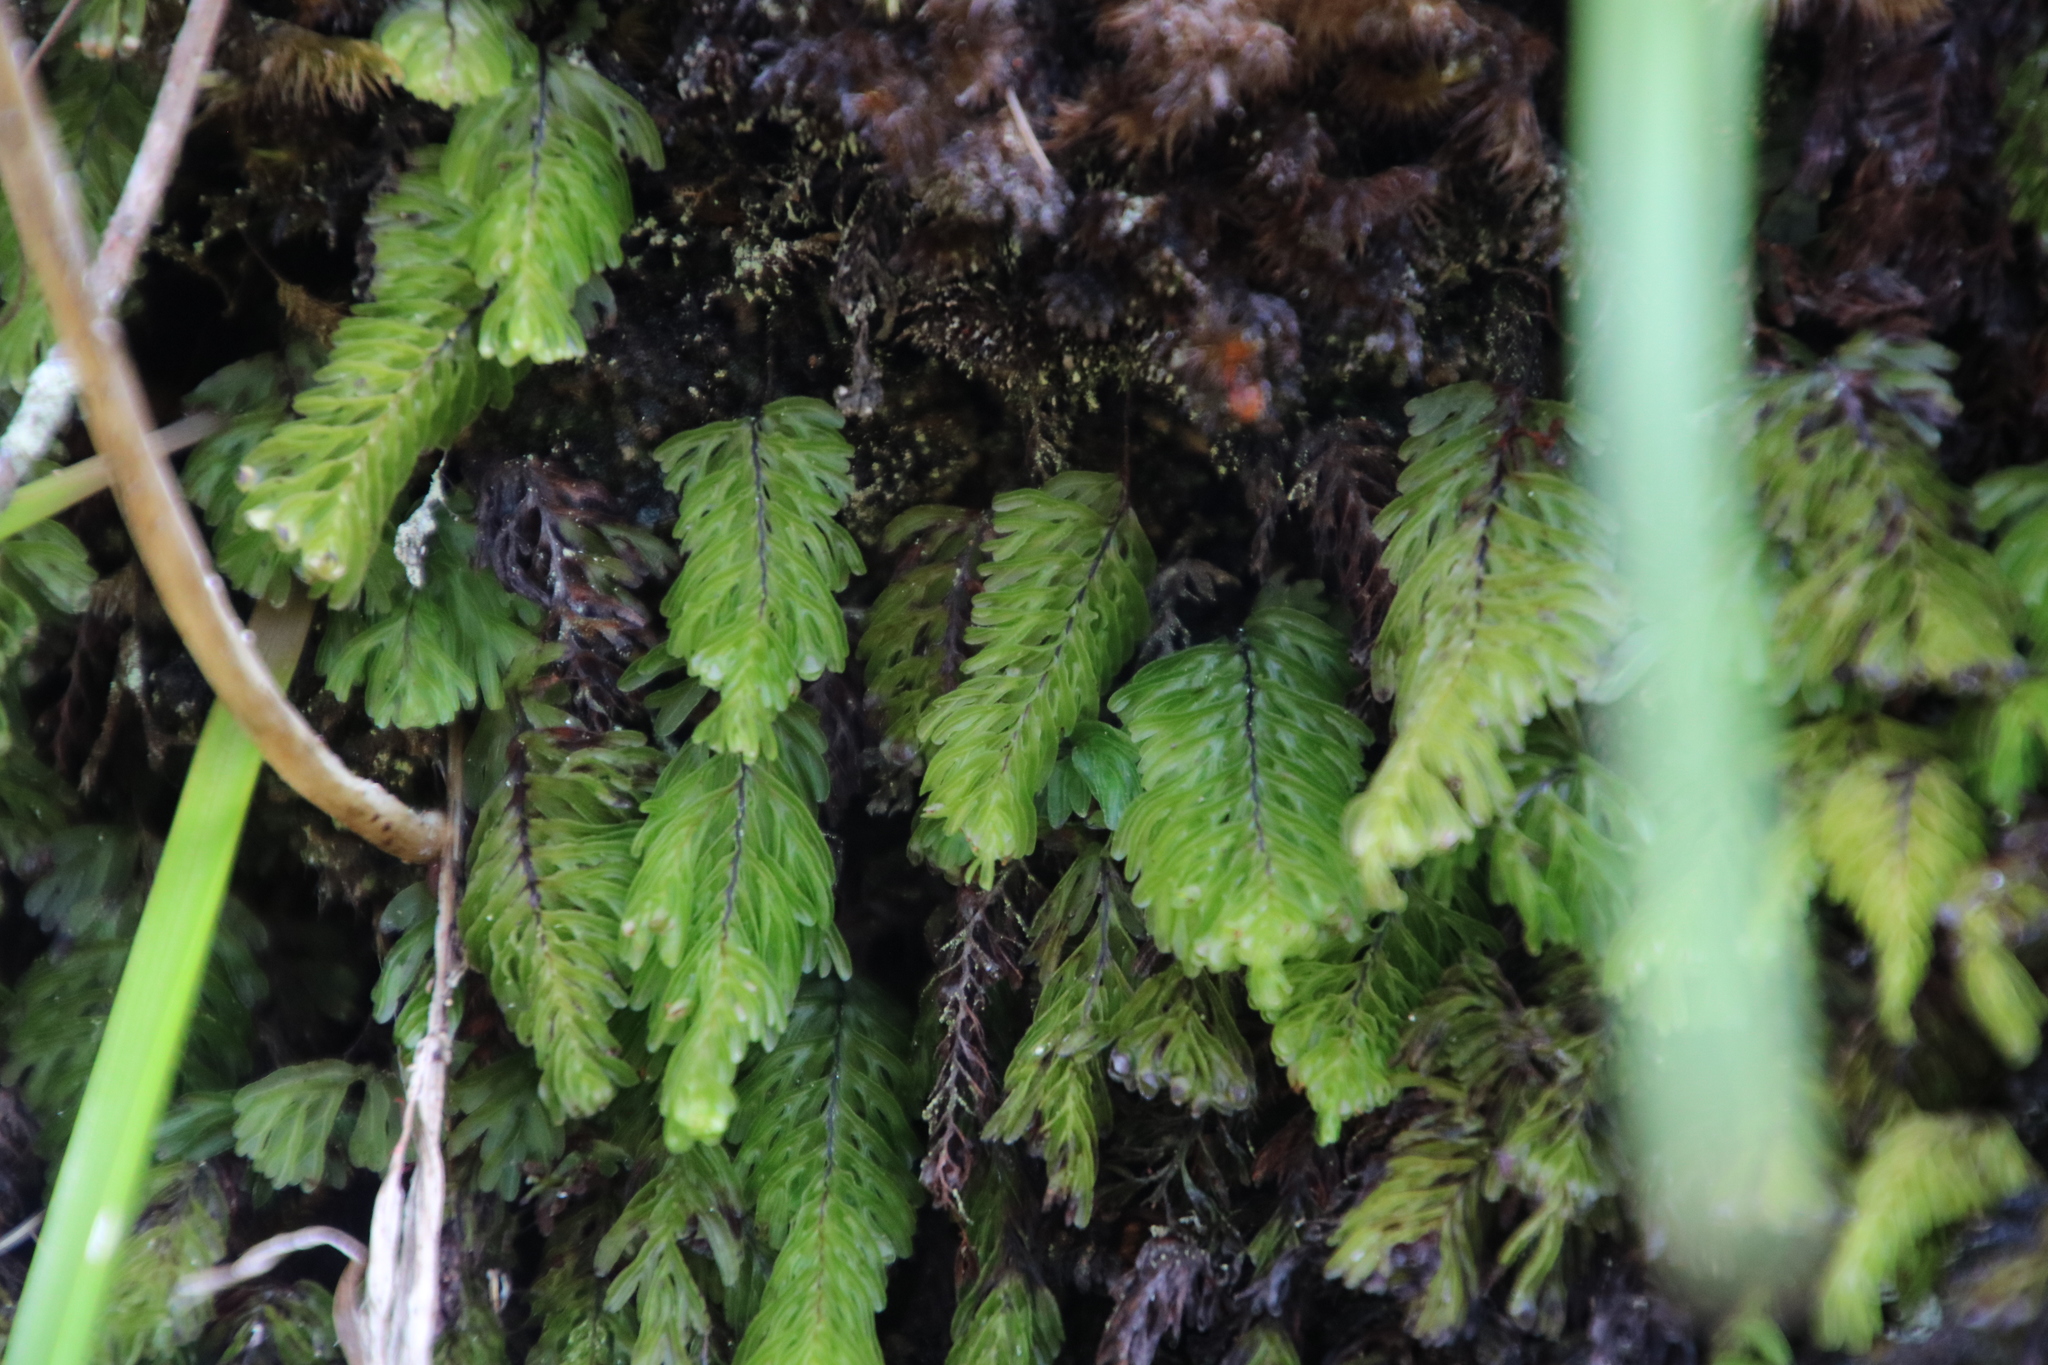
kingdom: Plantae
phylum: Tracheophyta
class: Polypodiopsida
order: Hymenophyllales
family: Hymenophyllaceae
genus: Hymenophyllum
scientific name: Hymenophyllum capense
